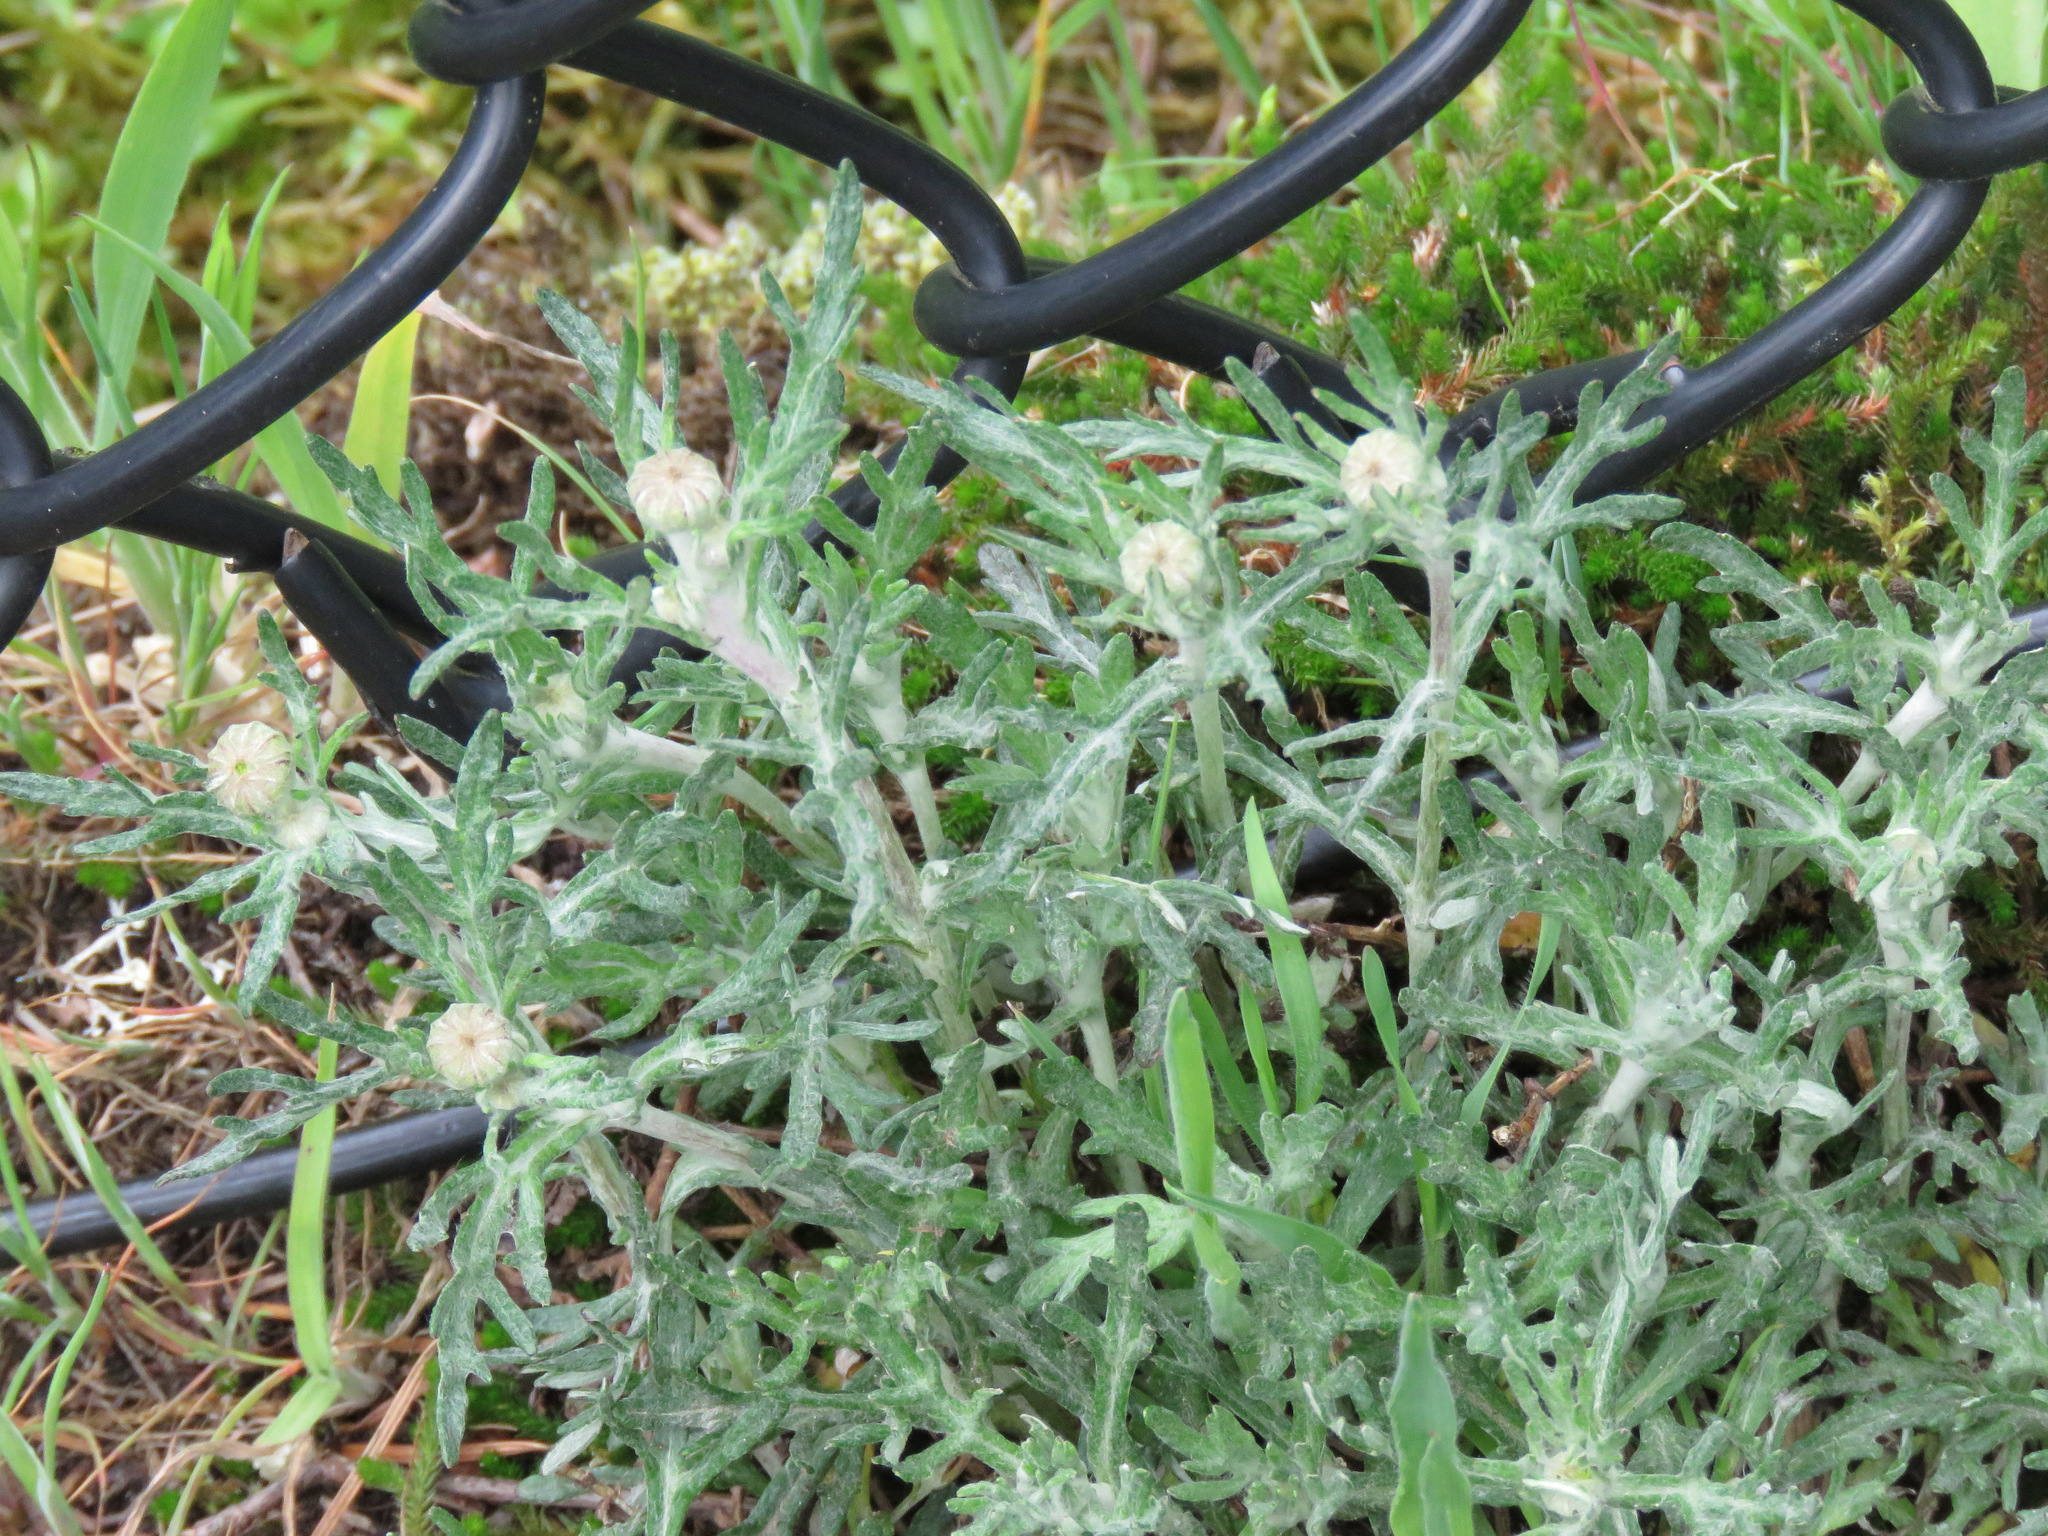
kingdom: Plantae
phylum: Tracheophyta
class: Magnoliopsida
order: Asterales
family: Asteraceae
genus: Eriophyllum
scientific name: Eriophyllum lanatum
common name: Common woolly-sunflower
